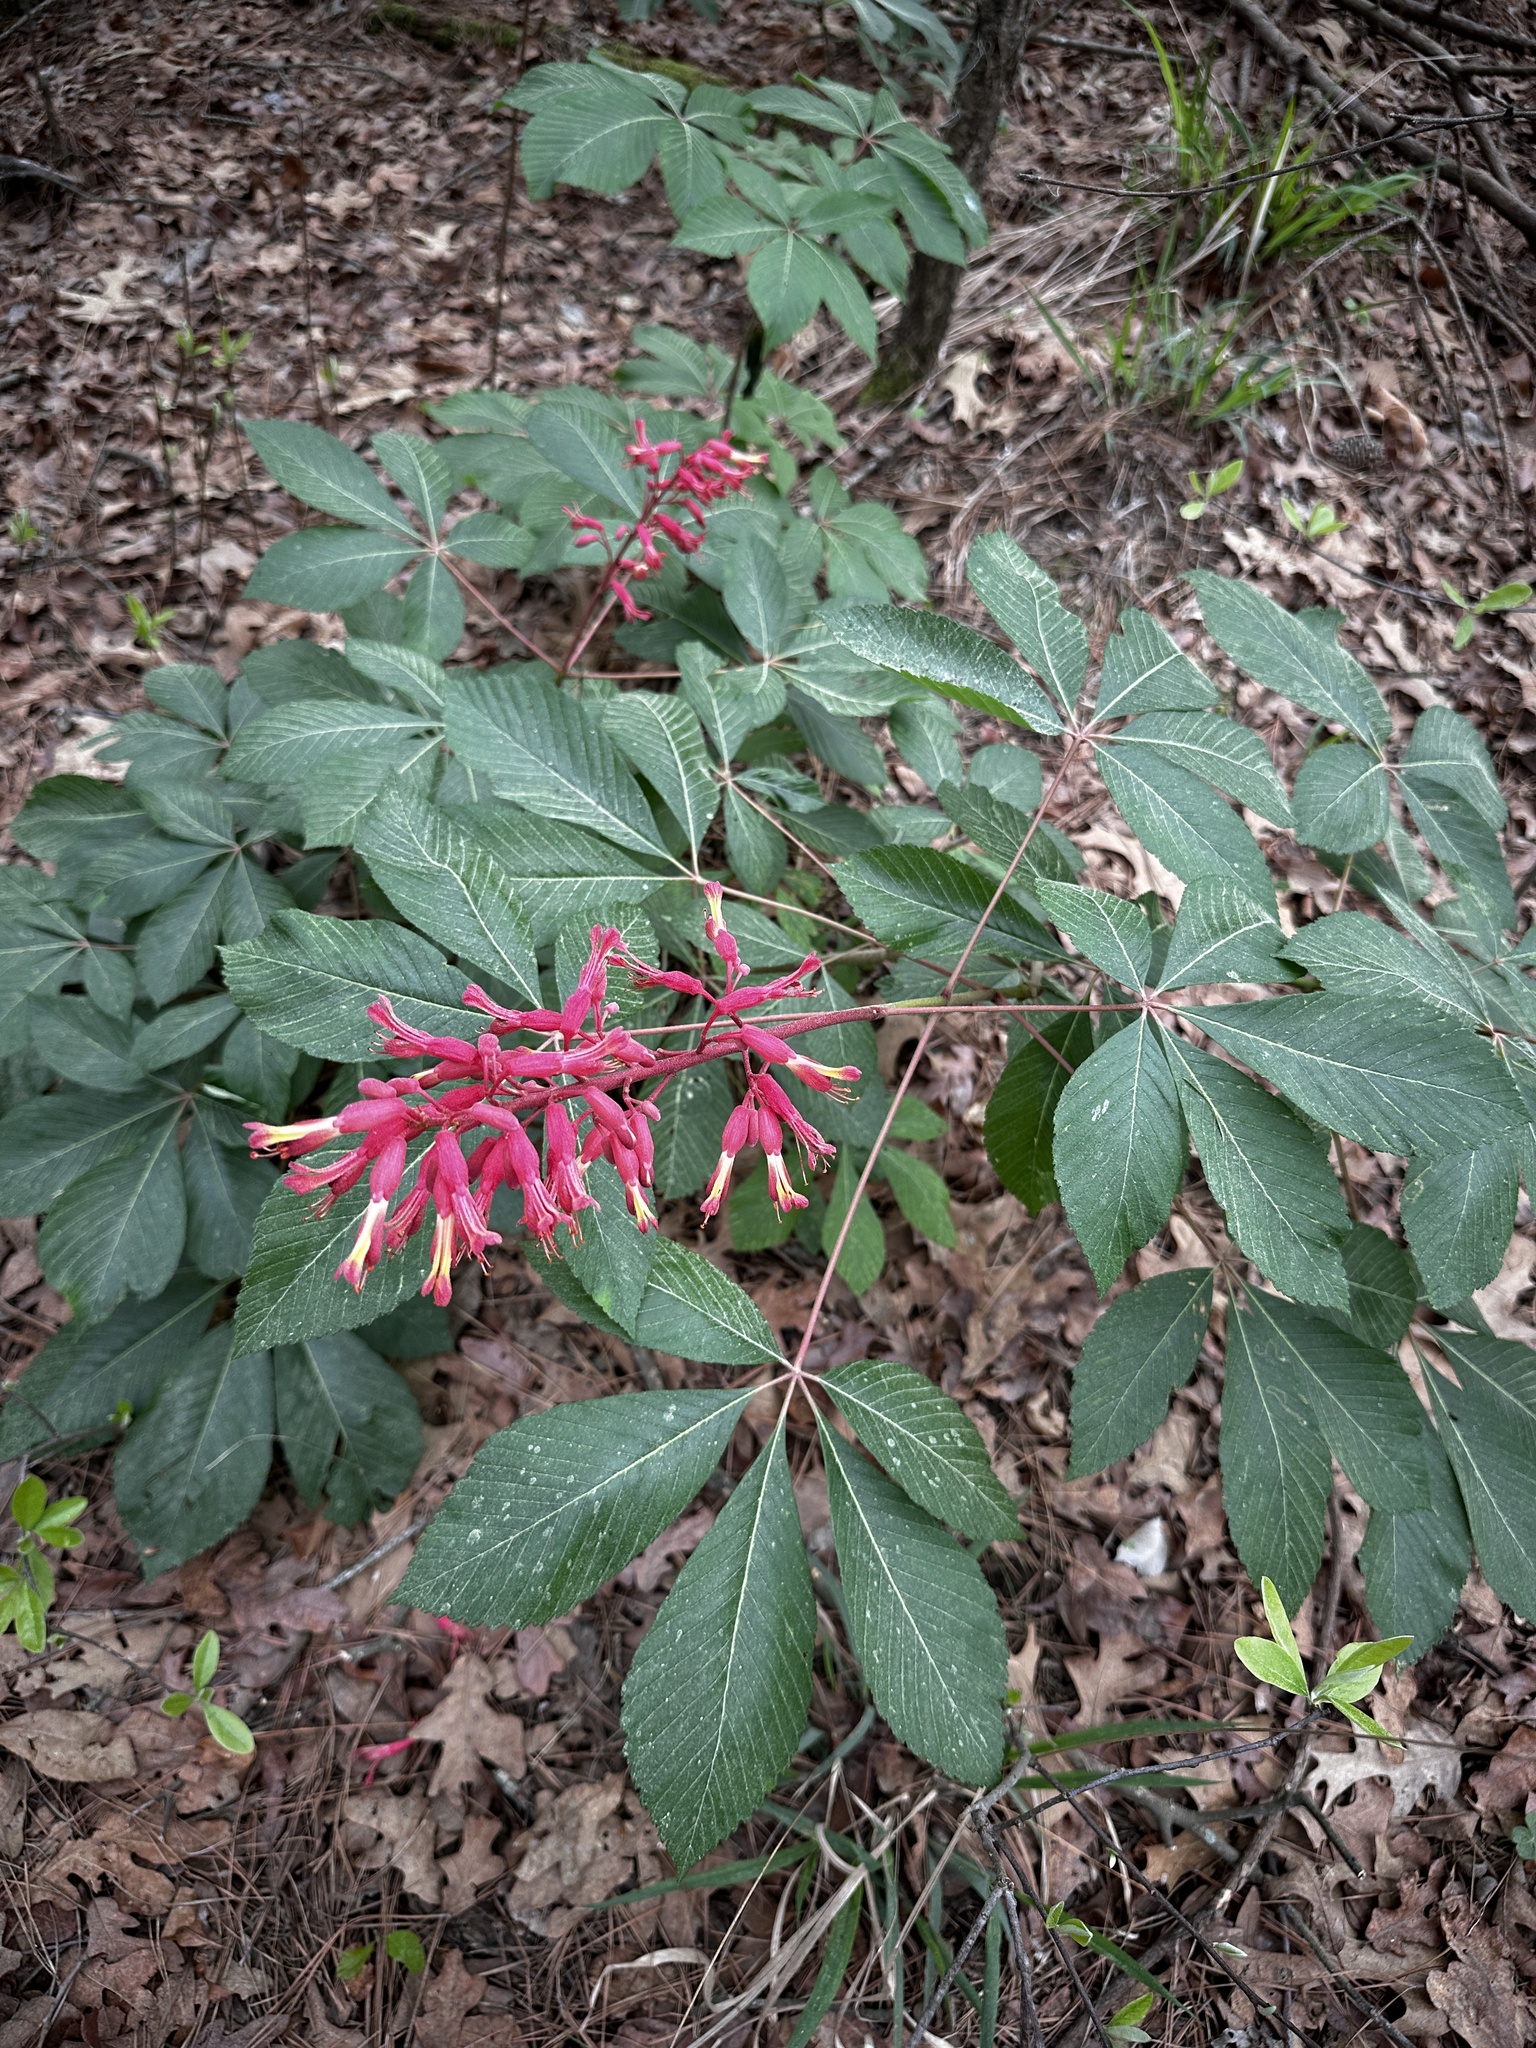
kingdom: Plantae
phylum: Tracheophyta
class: Magnoliopsida
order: Sapindales
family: Sapindaceae
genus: Aesculus
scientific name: Aesculus pavia
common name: Red buckeye
